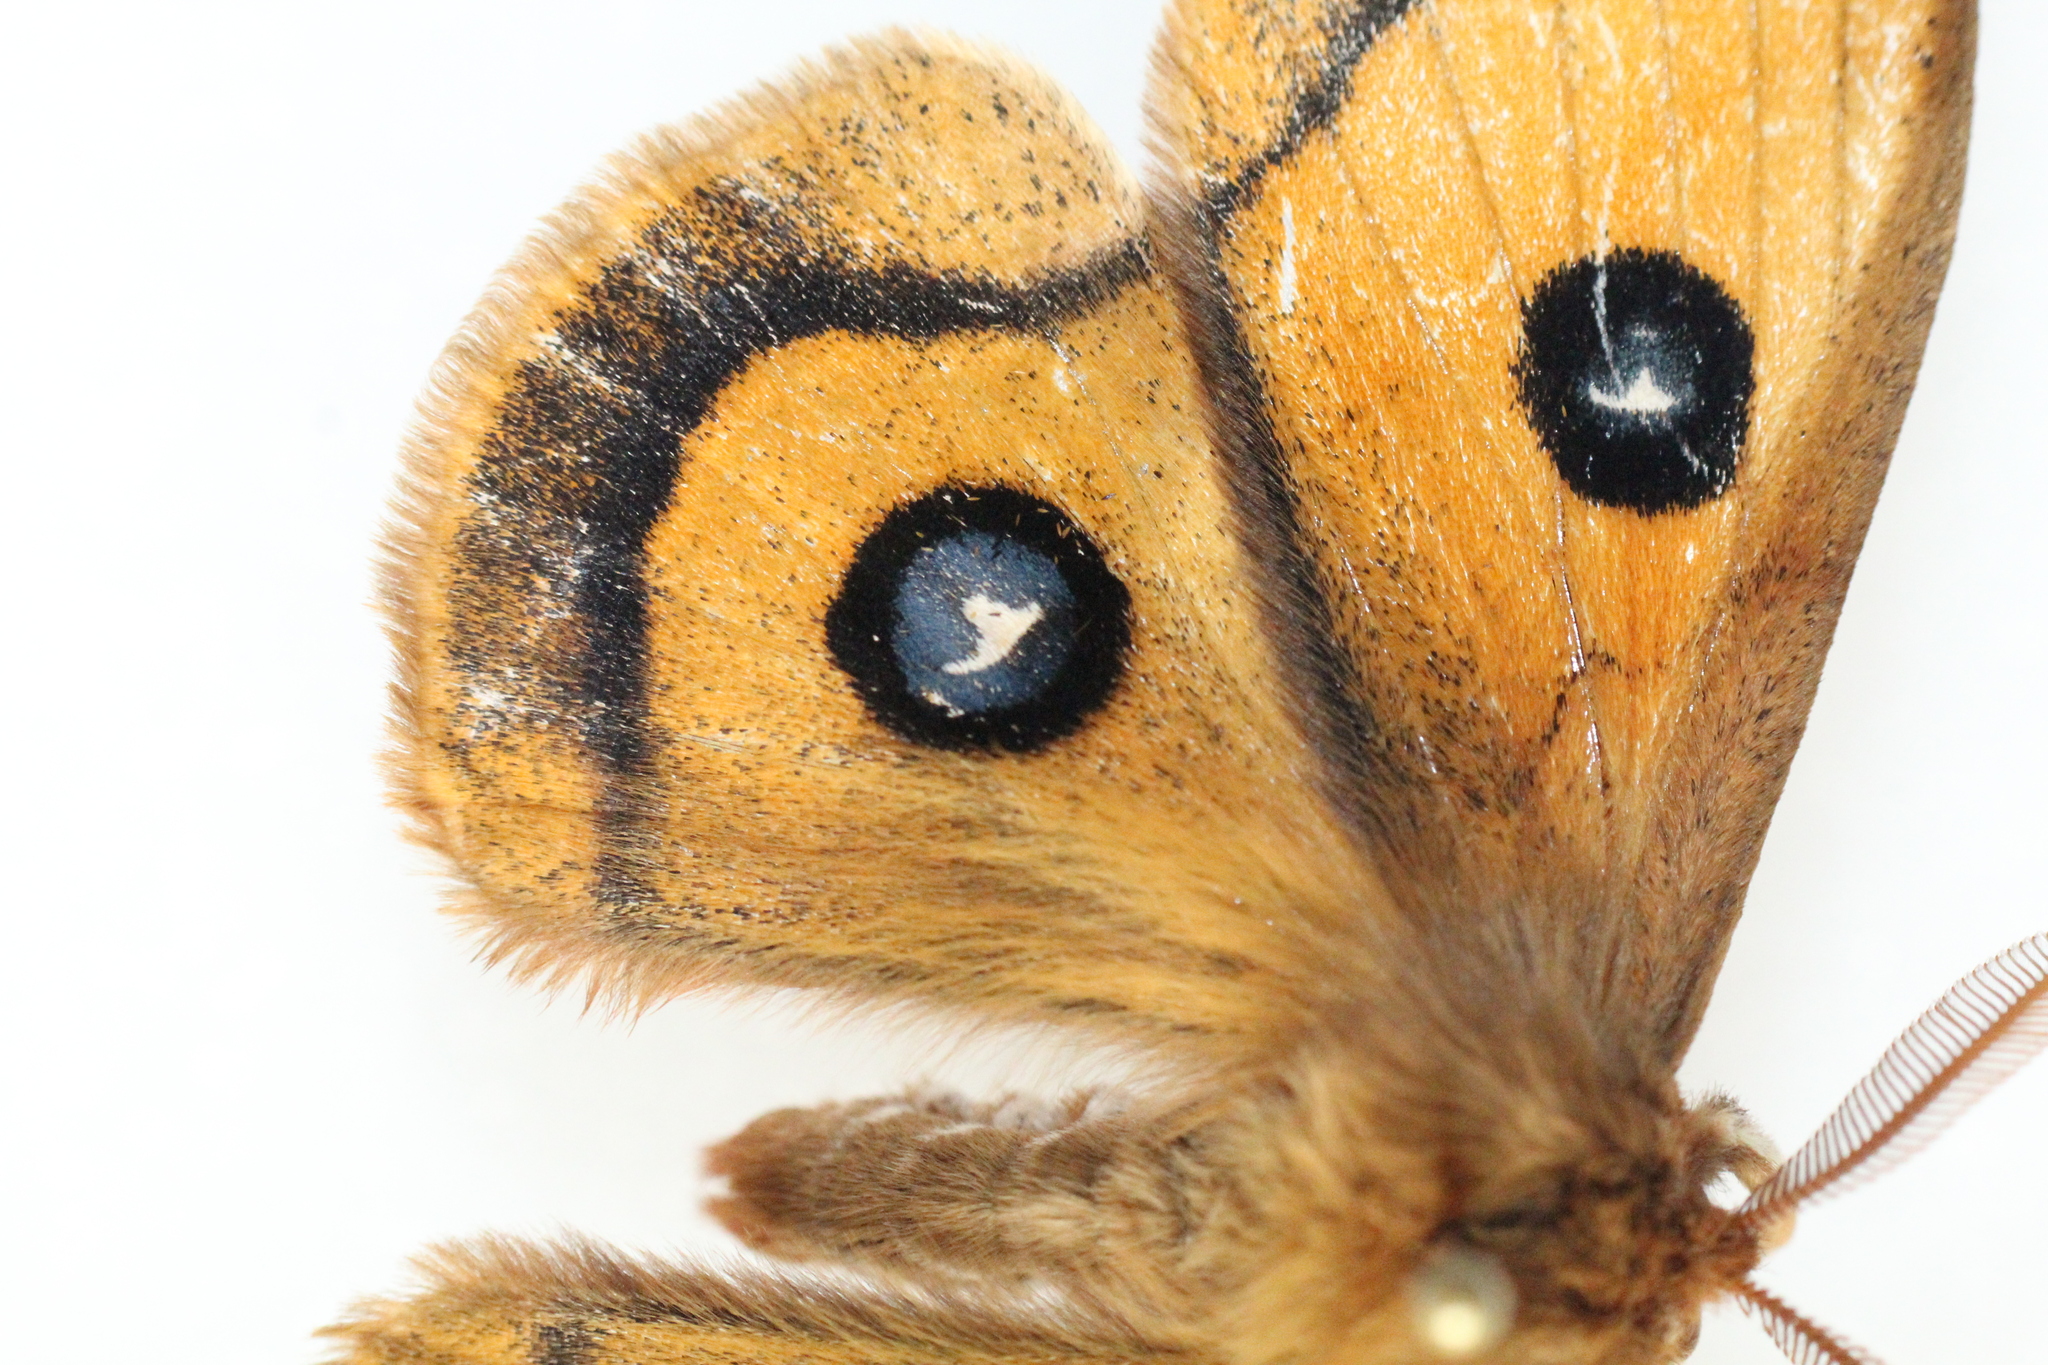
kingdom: Animalia
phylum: Arthropoda
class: Insecta
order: Lepidoptera
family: Saturniidae
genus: Aglia
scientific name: Aglia tau
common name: Tau emperor
